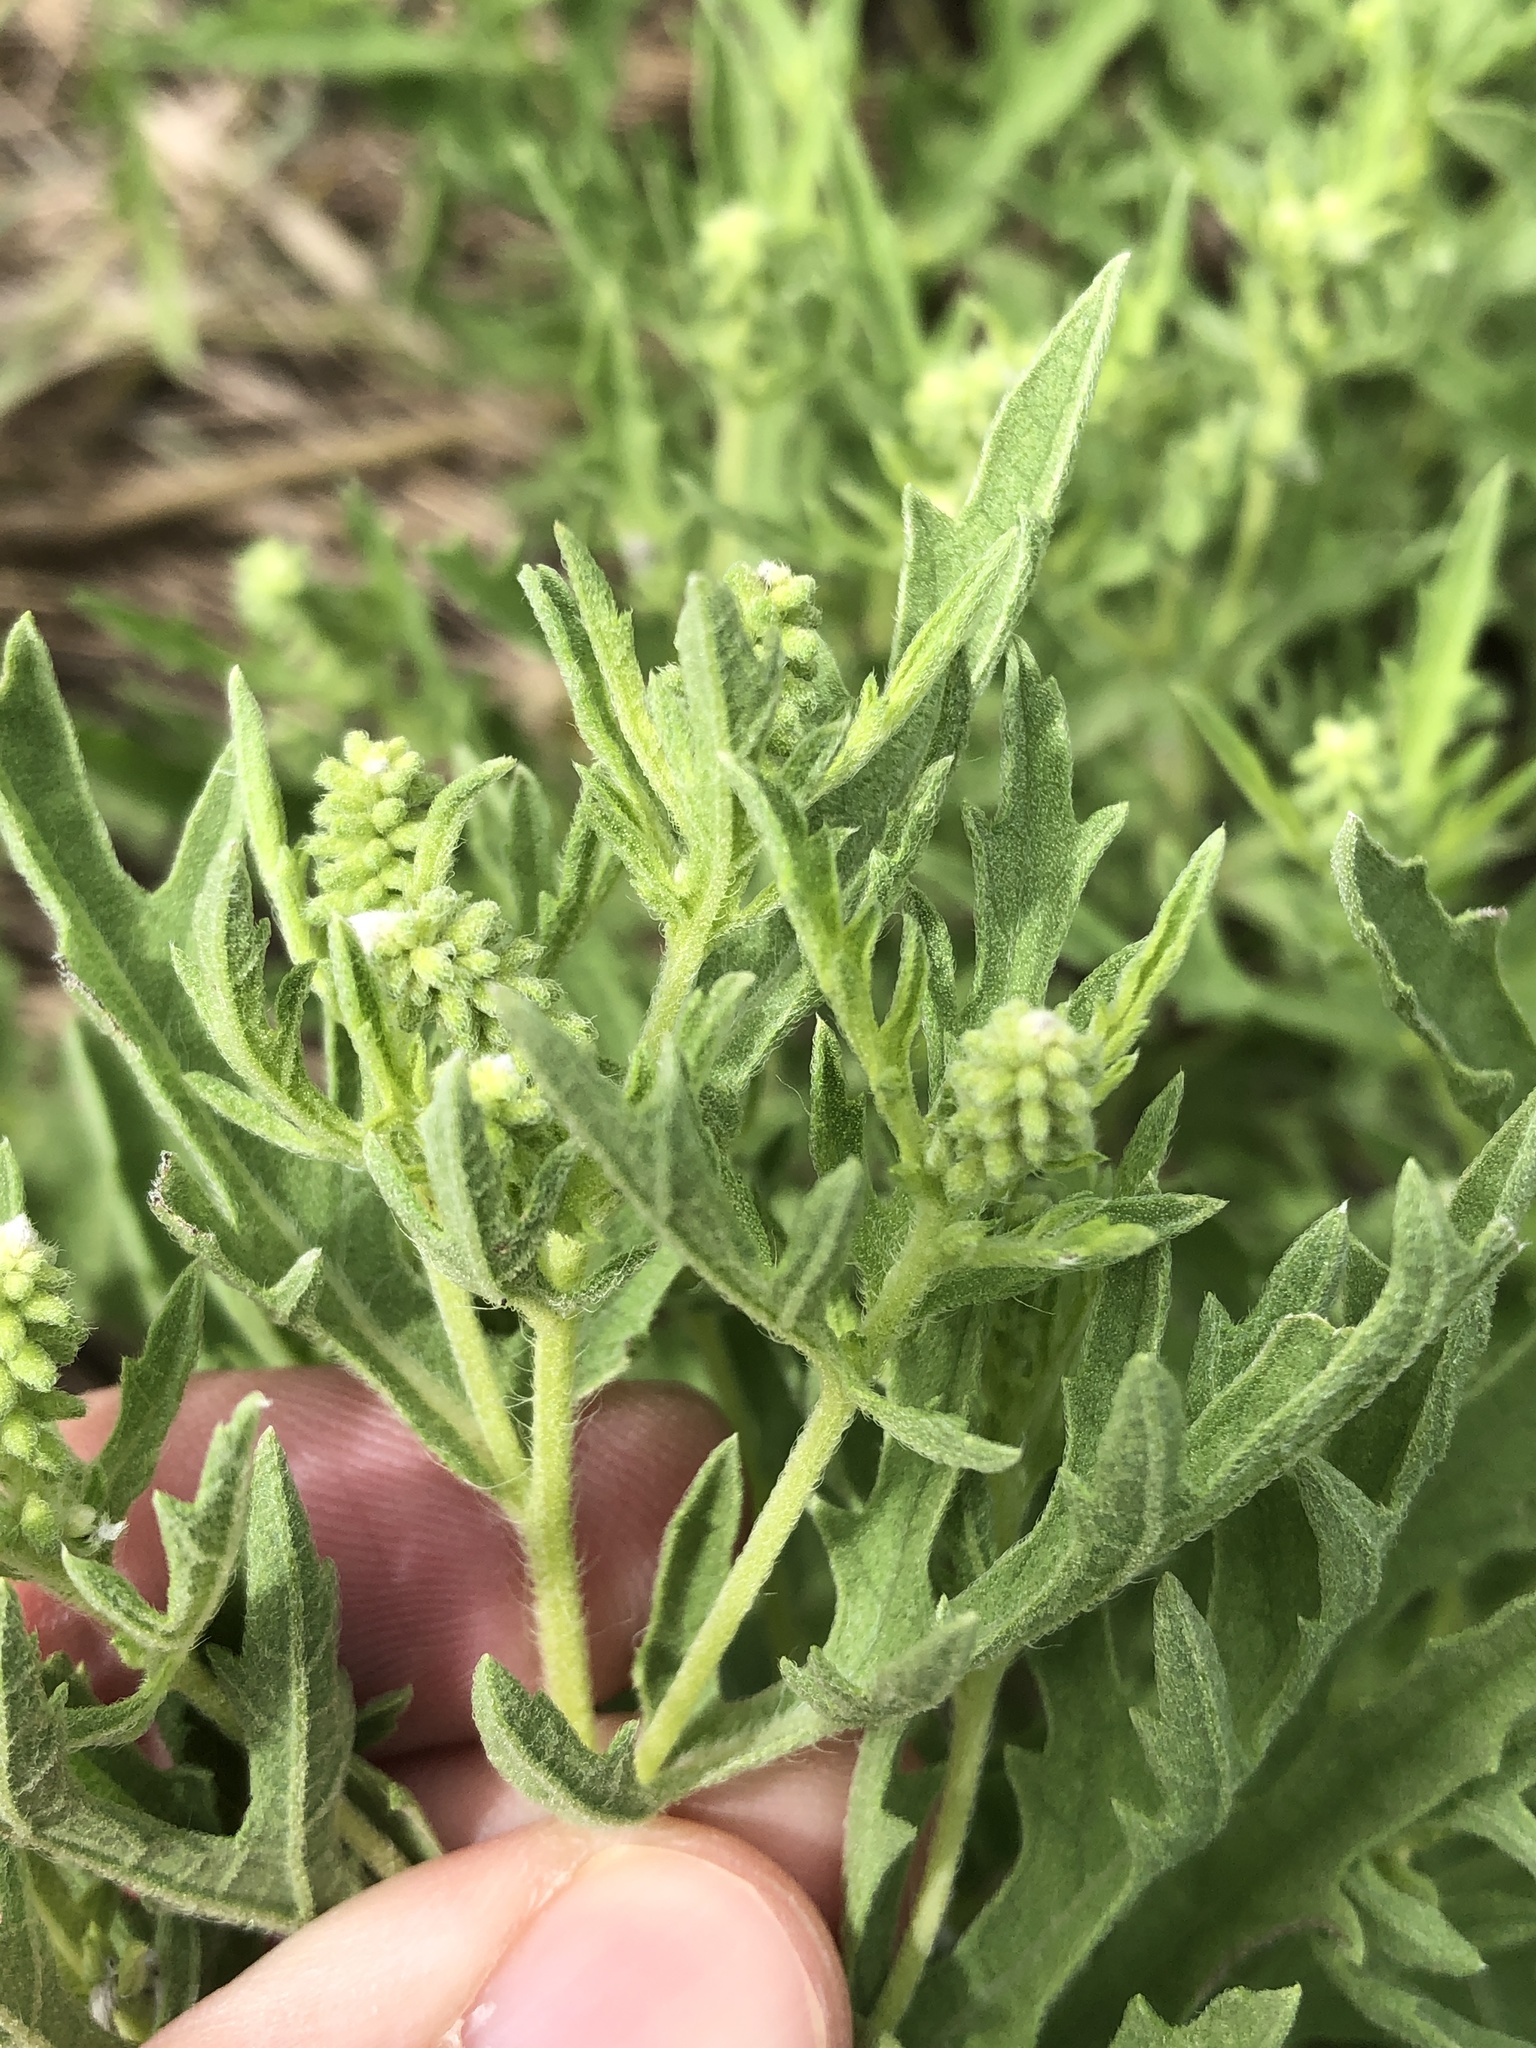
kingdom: Plantae
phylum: Tracheophyta
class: Magnoliopsida
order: Asterales
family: Asteraceae
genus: Ambrosia
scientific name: Ambrosia psilostachya
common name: Perennial ragweed
